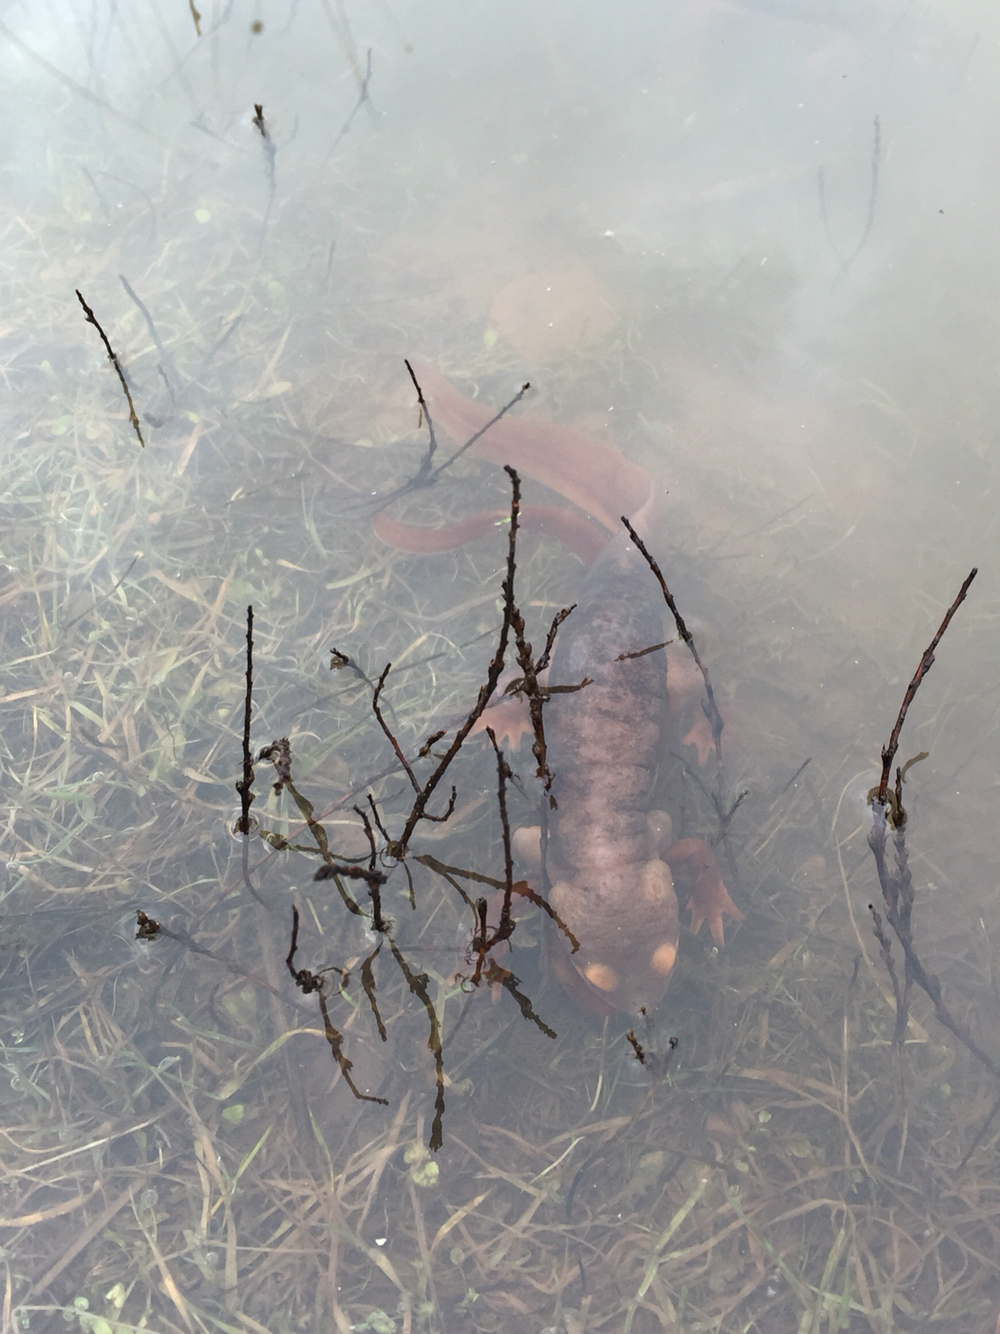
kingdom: Animalia
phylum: Chordata
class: Amphibia
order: Caudata
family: Salamandridae
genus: Taricha
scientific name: Taricha torosa
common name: California newt
